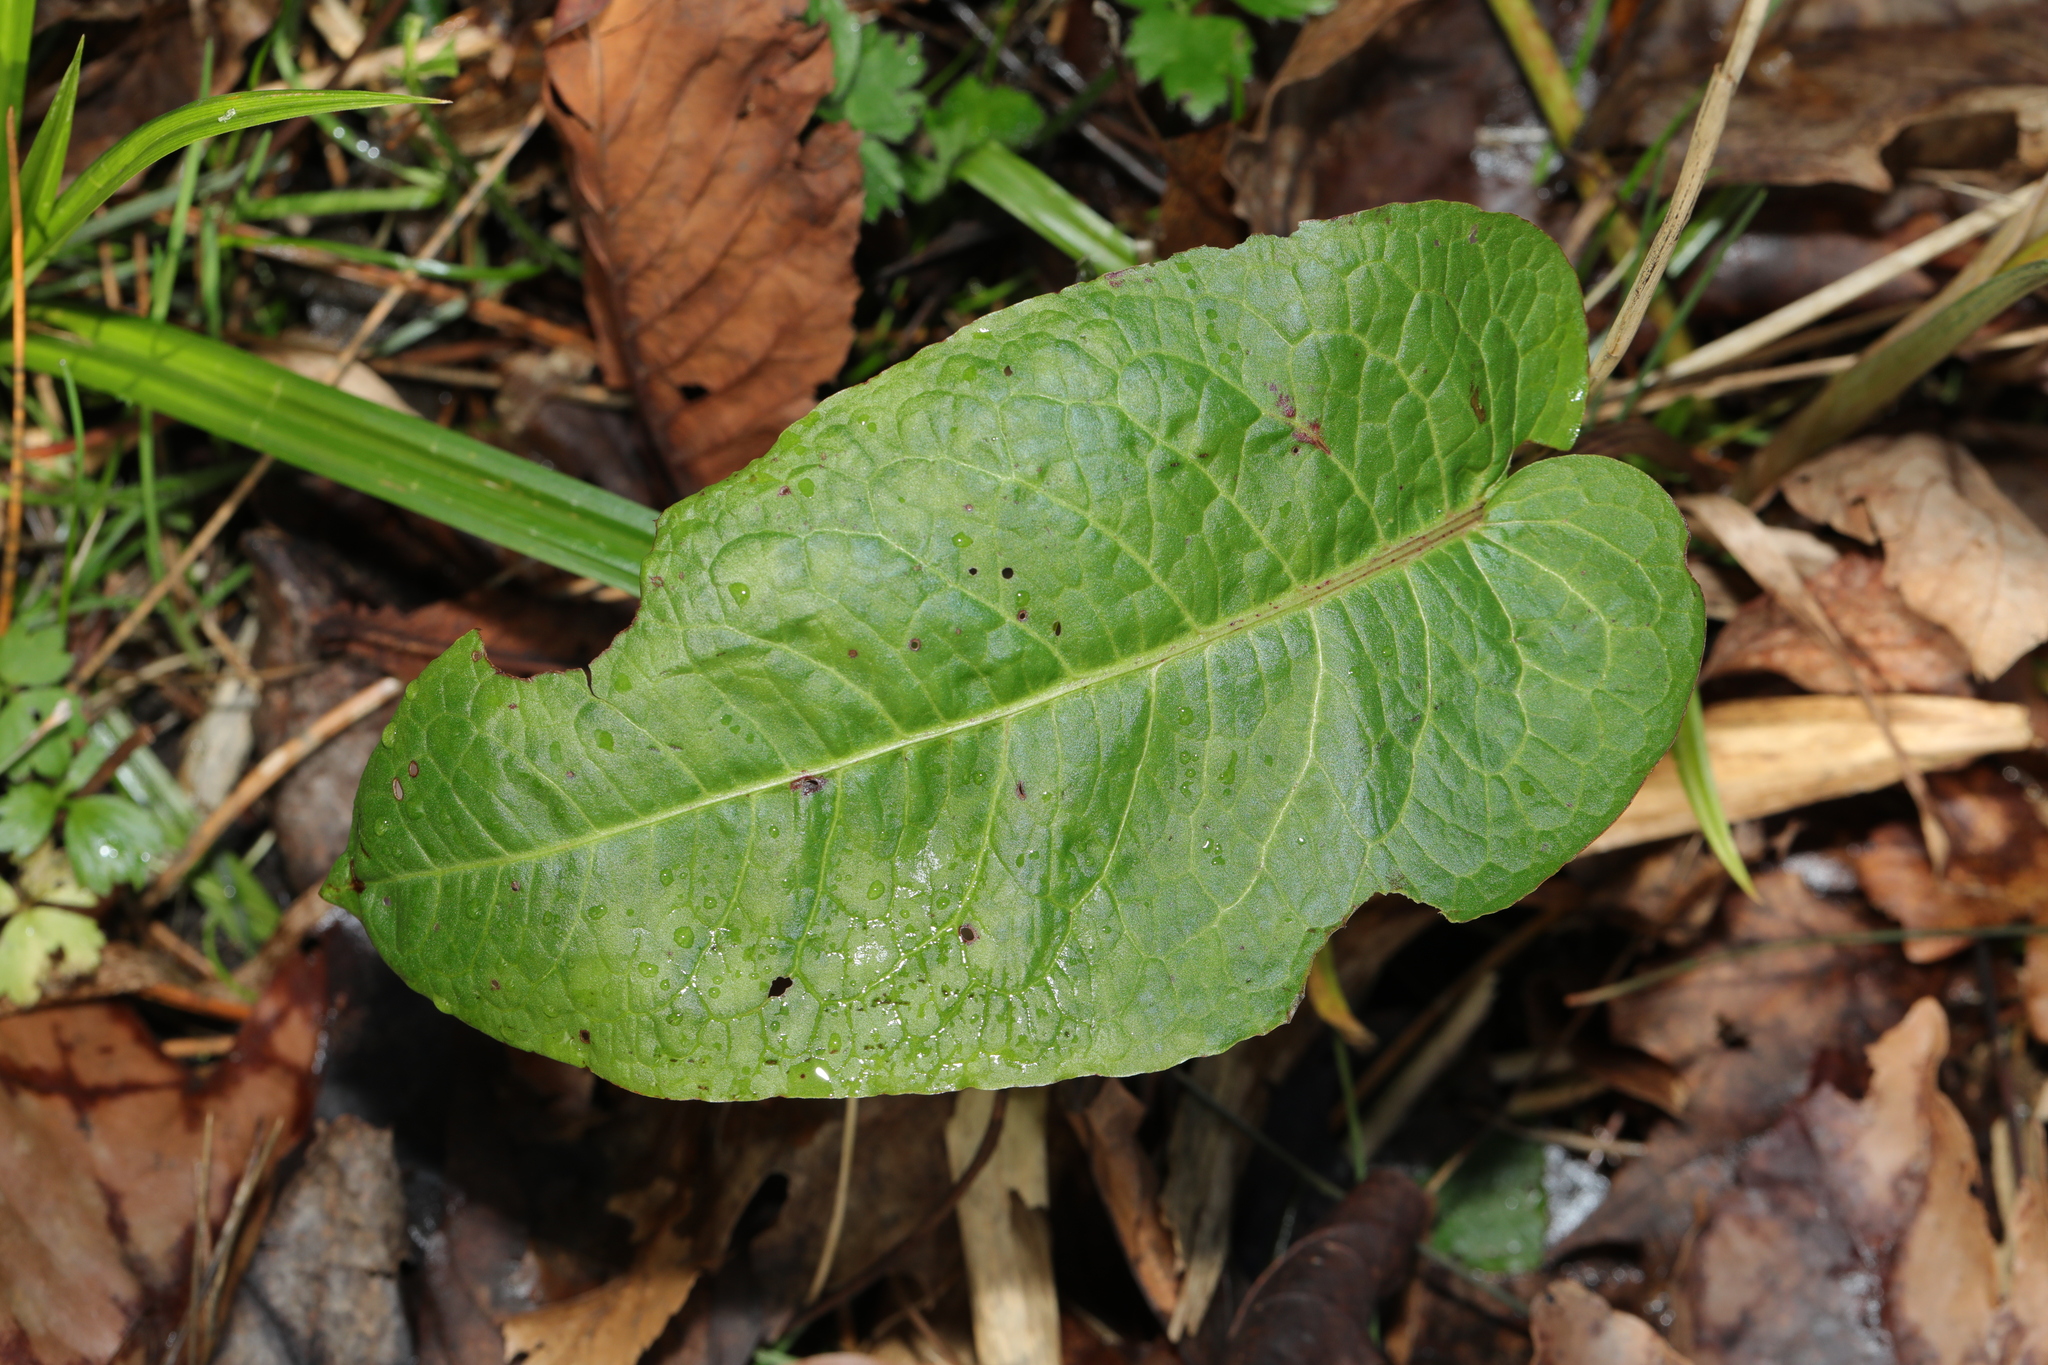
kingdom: Plantae
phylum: Tracheophyta
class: Magnoliopsida
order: Caryophyllales
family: Polygonaceae
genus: Rumex
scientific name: Rumex obtusifolius
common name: Bitter dock
